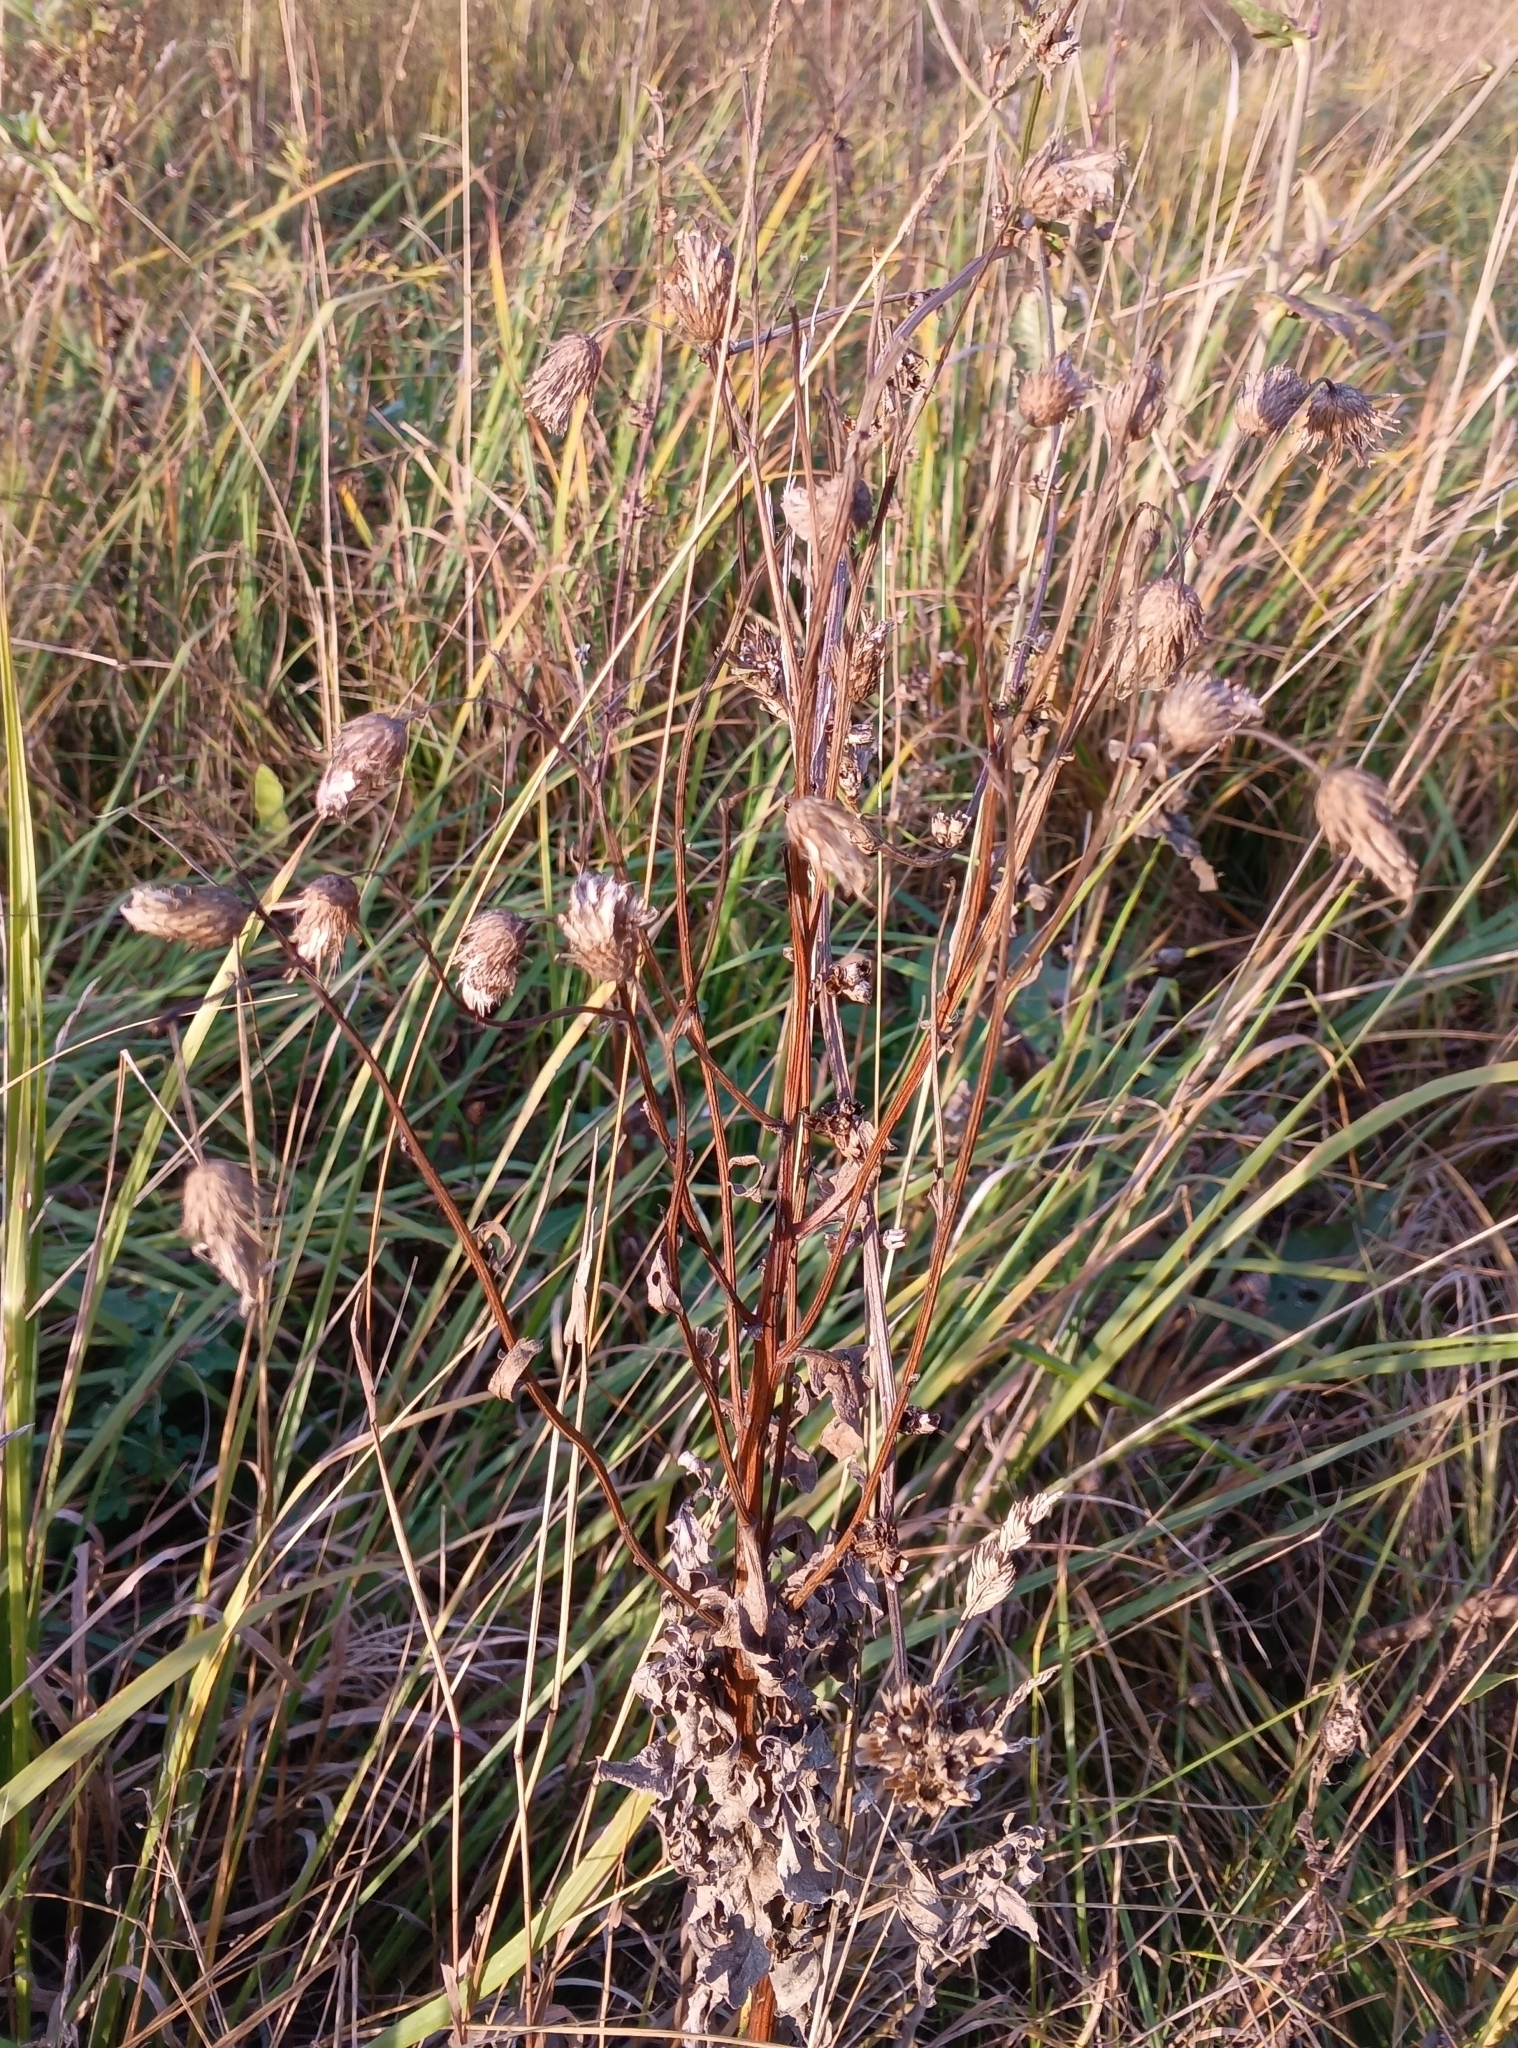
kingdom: Plantae
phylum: Tracheophyta
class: Magnoliopsida
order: Asterales
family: Asteraceae
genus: Cirsium
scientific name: Cirsium arvense
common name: Creeping thistle
